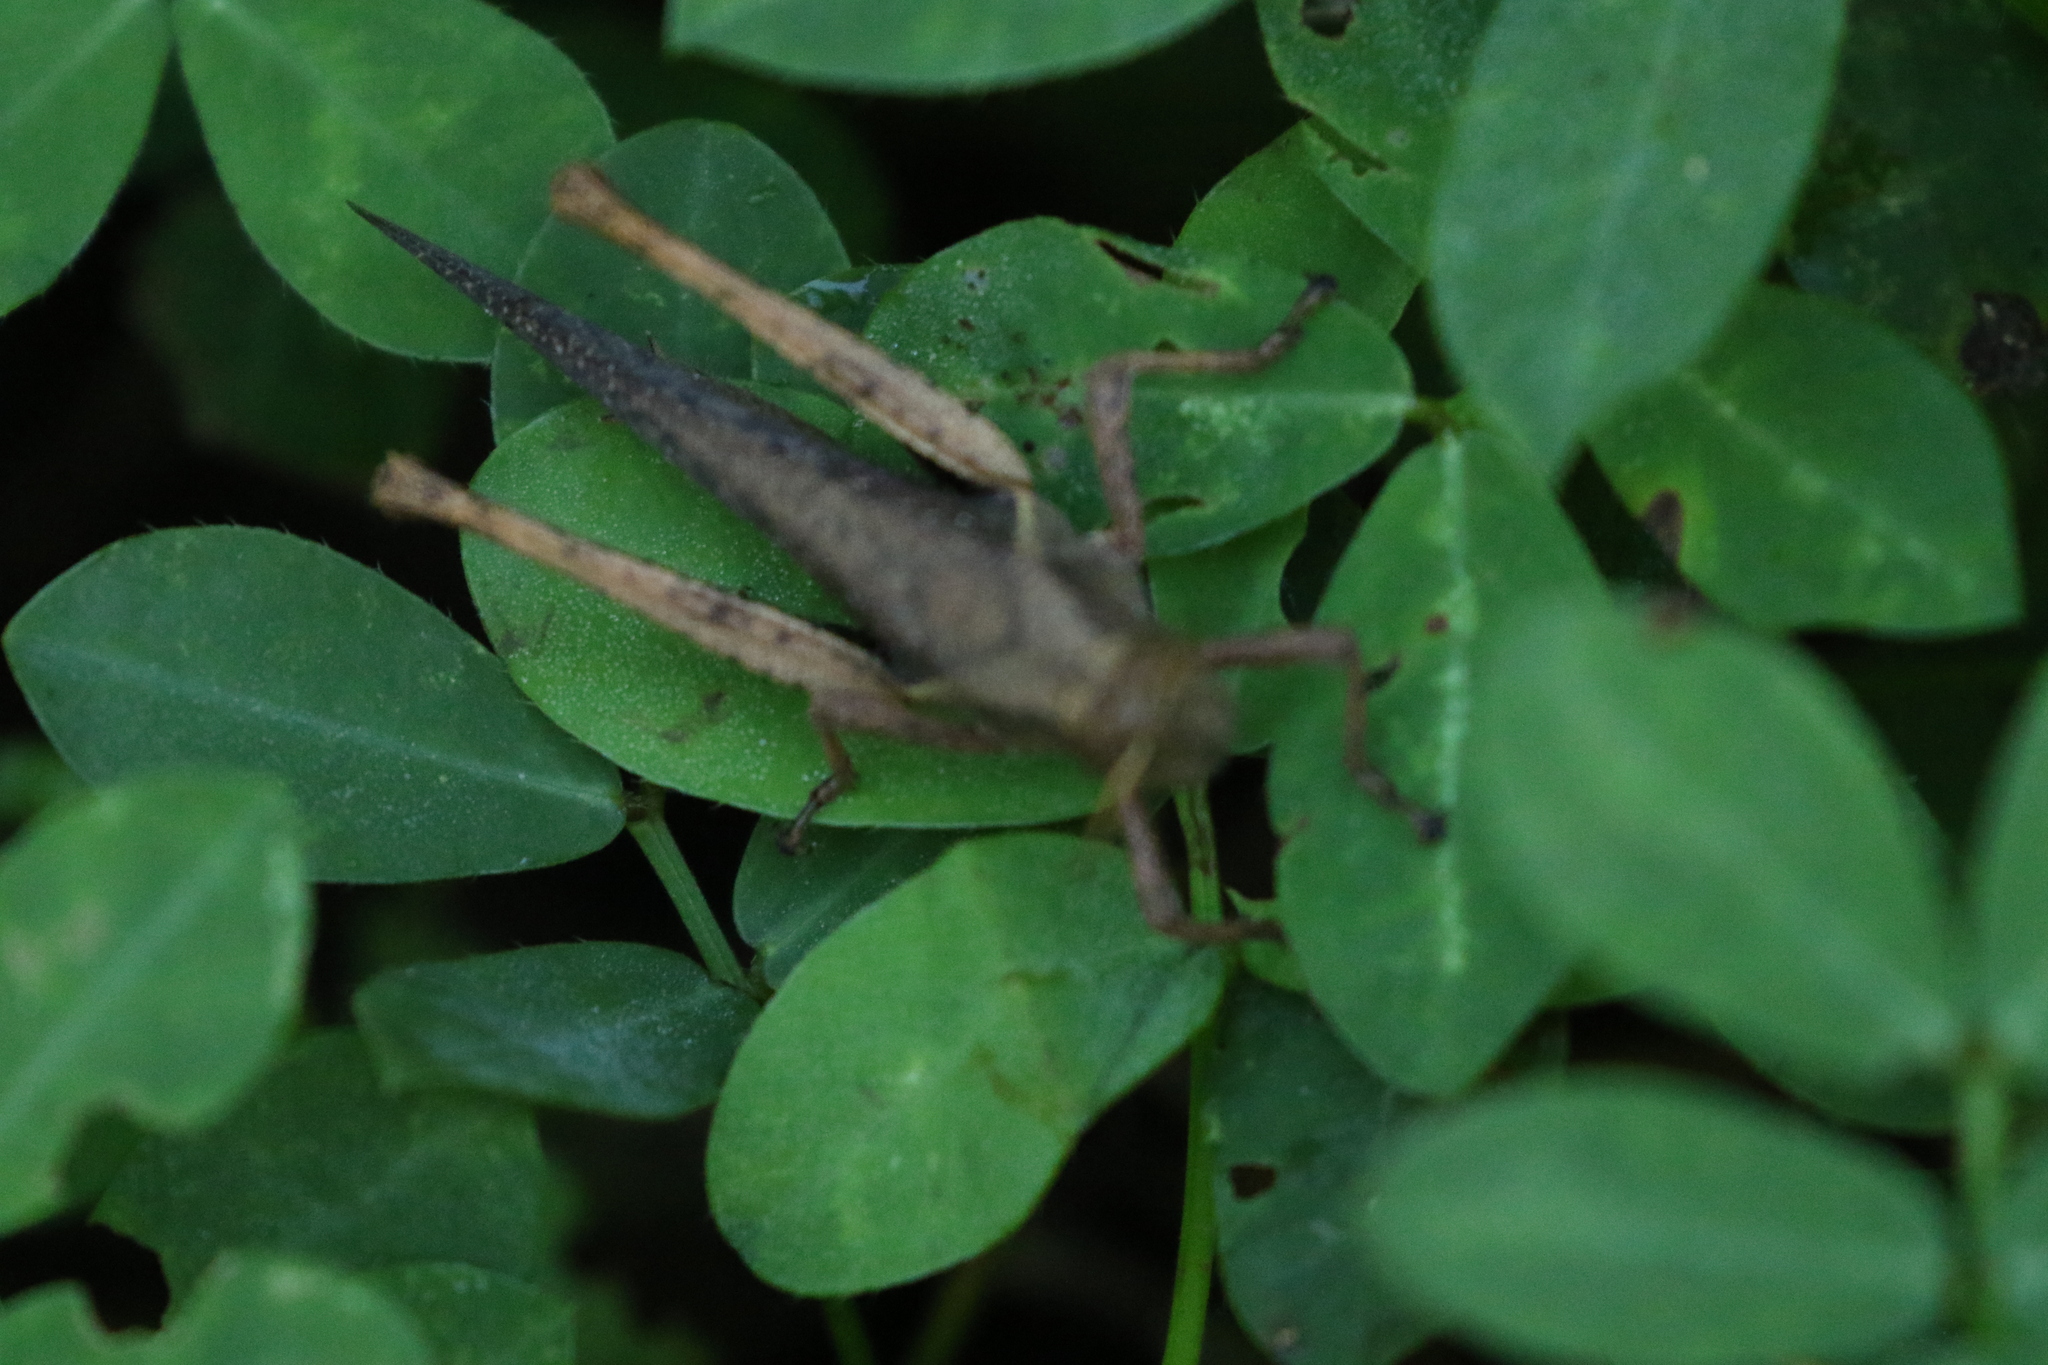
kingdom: Animalia
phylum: Arthropoda
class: Insecta
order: Orthoptera
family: Acrididae
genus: Abracris
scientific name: Abracris flavolineata
